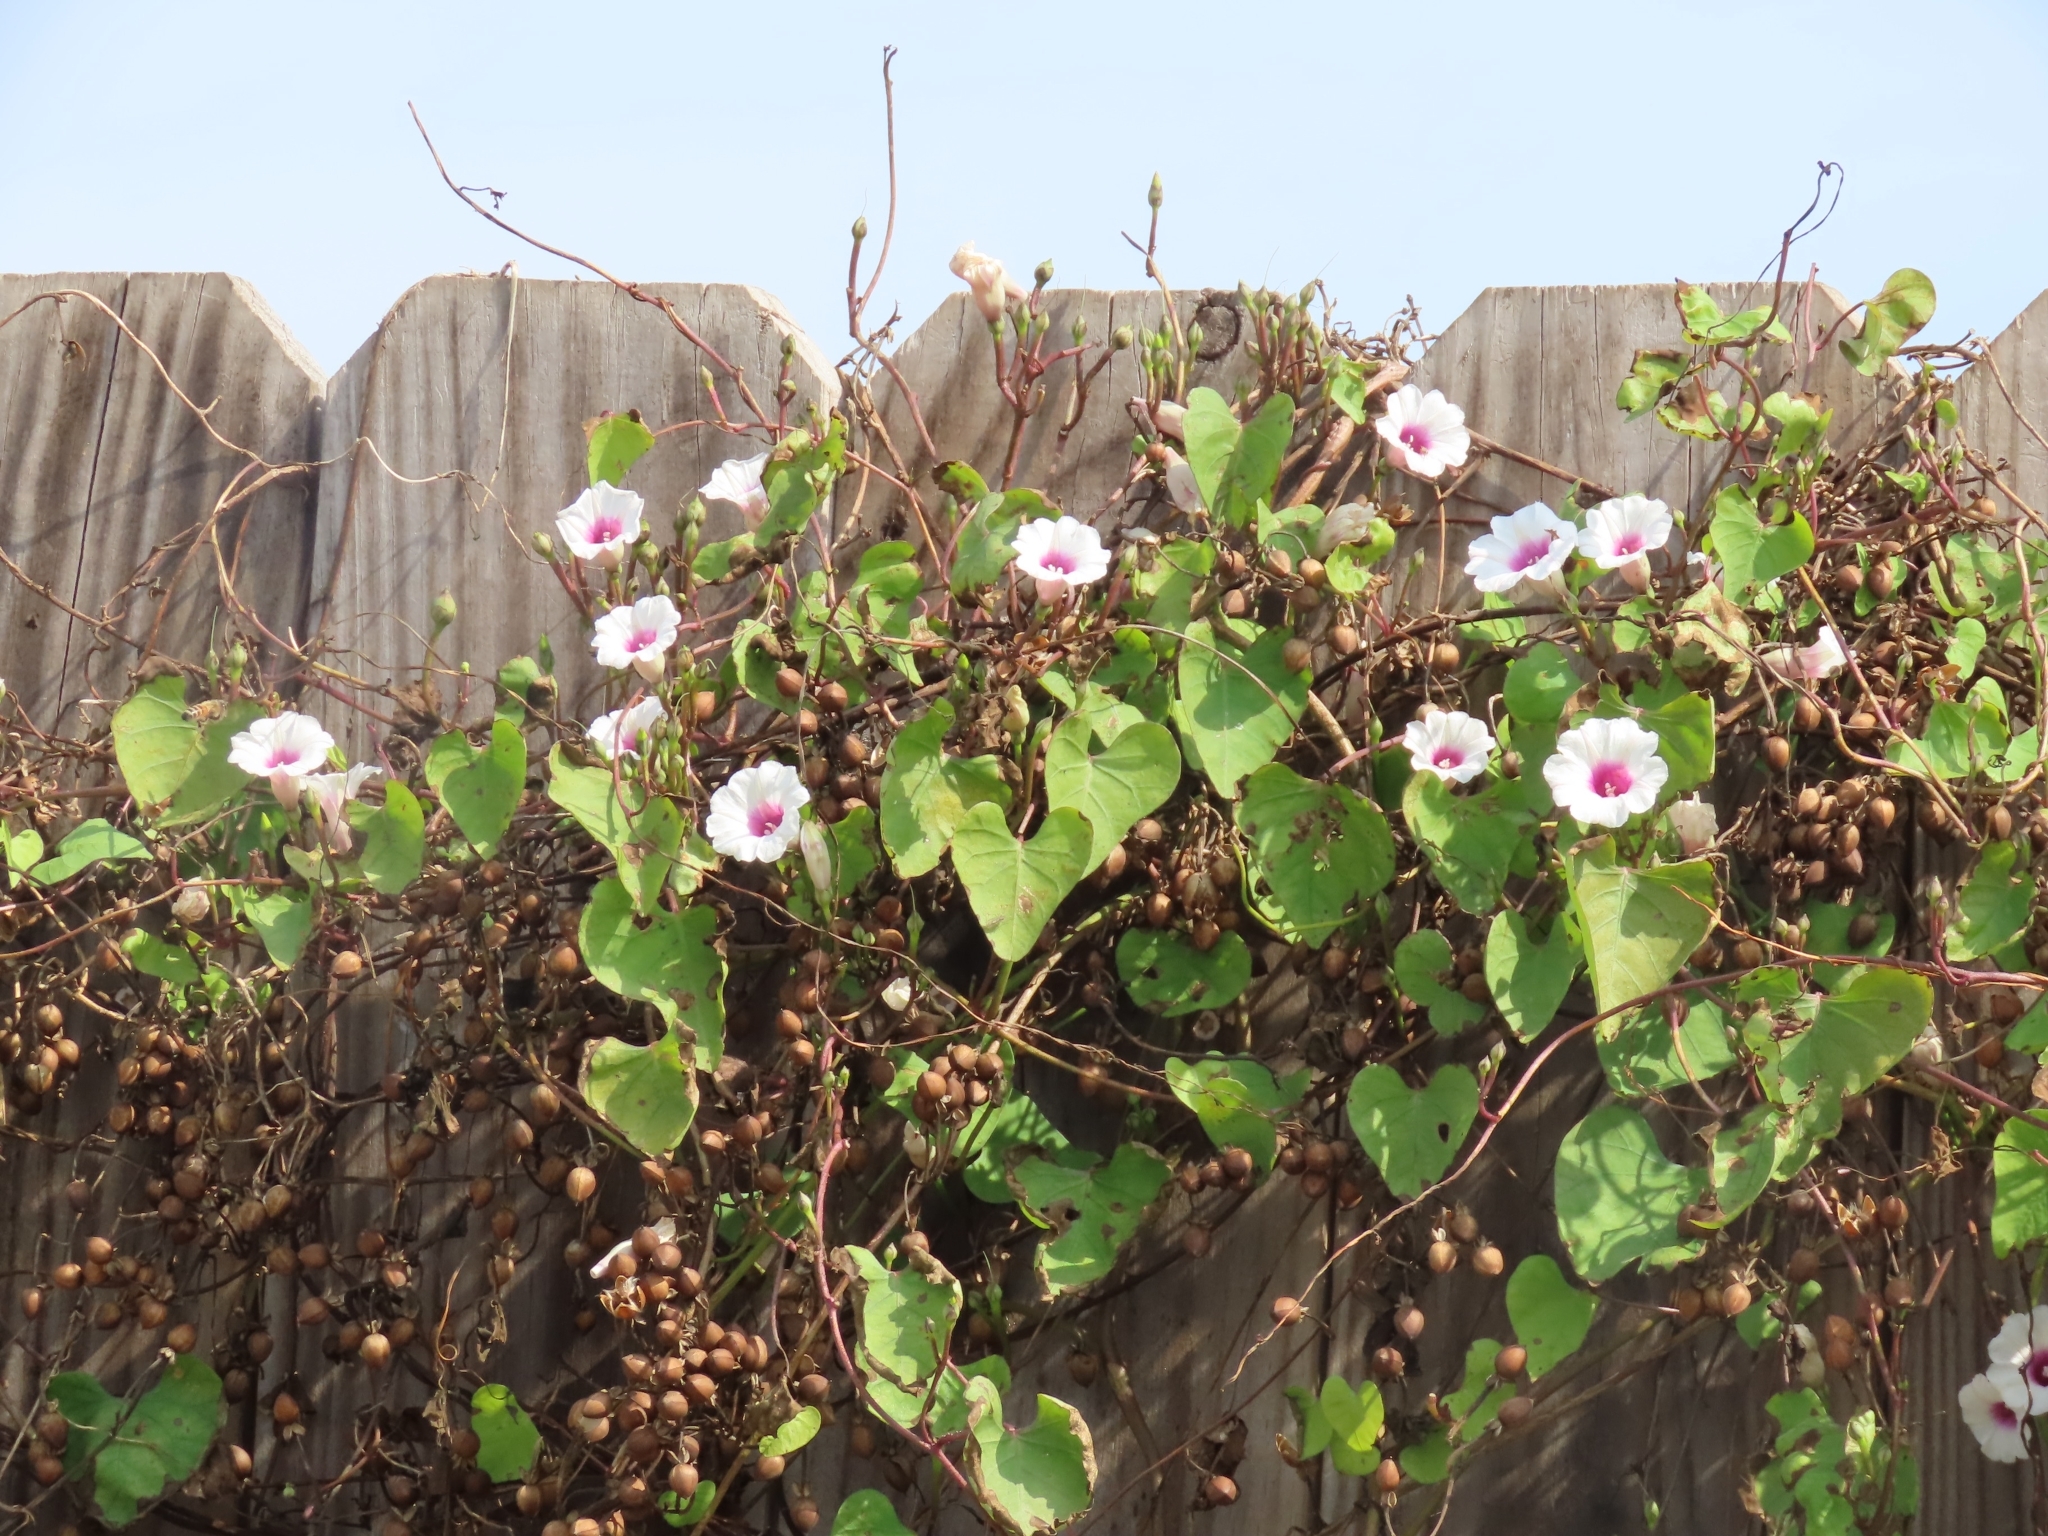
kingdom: Plantae
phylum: Tracheophyta
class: Magnoliopsida
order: Solanales
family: Convolvulaceae
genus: Ipomoea
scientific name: Ipomoea amnicola
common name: Redcenter morning-glory
